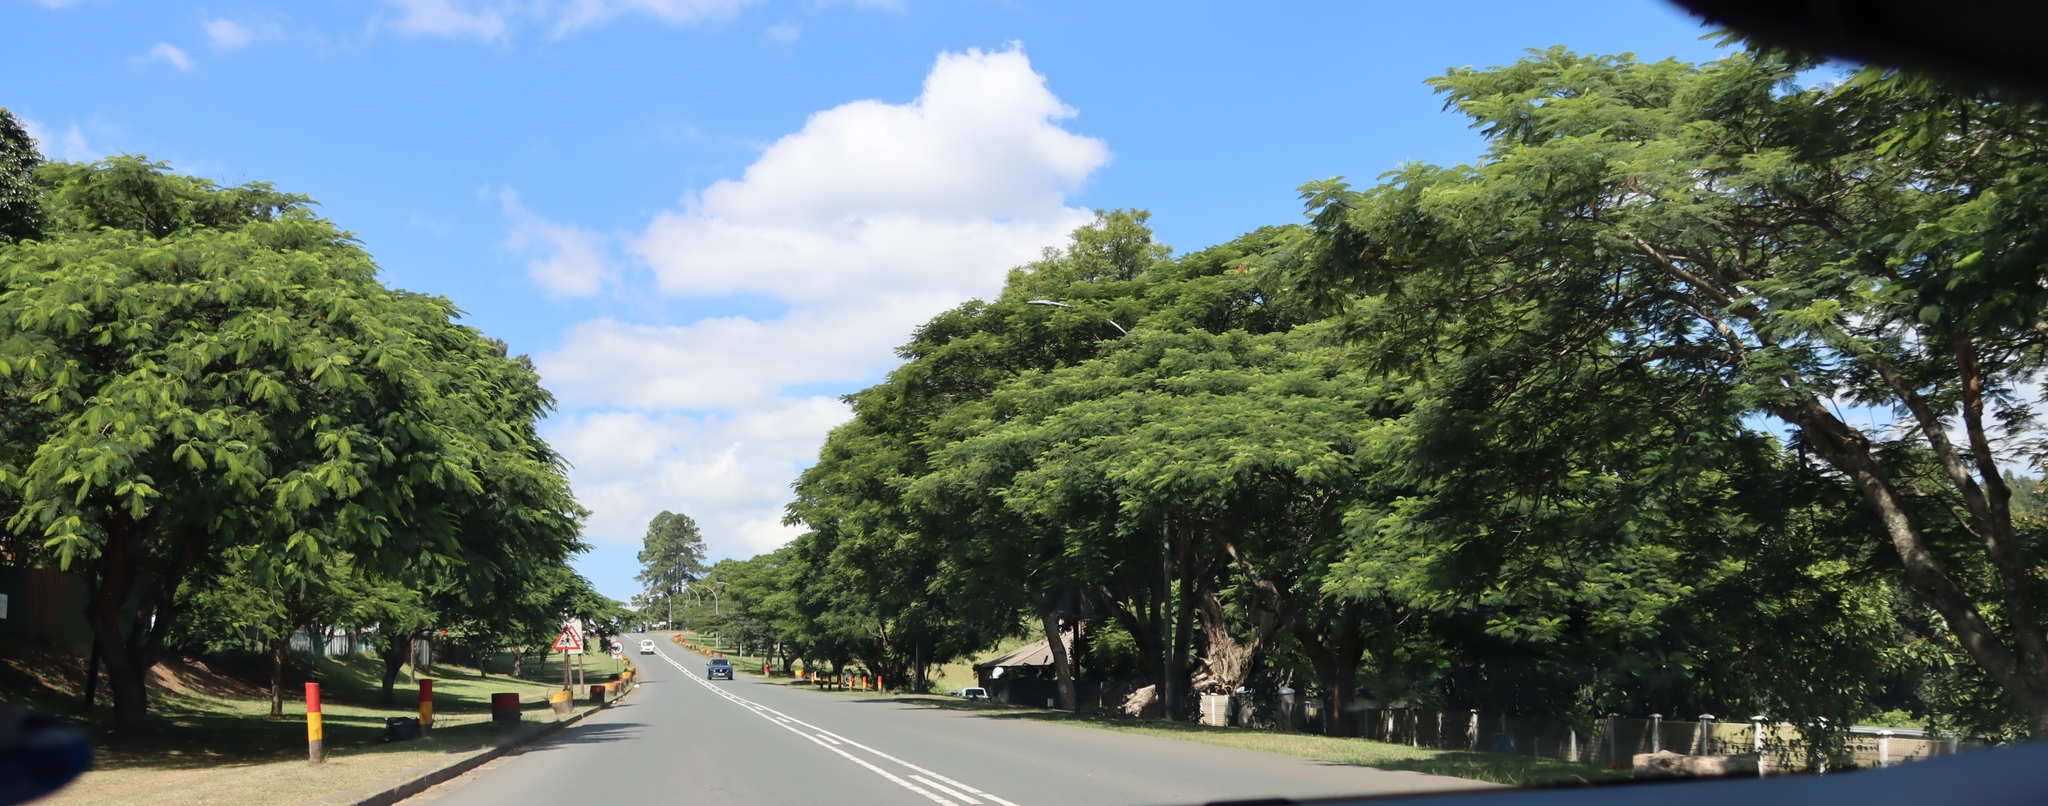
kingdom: Plantae
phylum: Tracheophyta
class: Magnoliopsida
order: Fabales
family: Fabaceae
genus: Delonix
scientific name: Delonix regia
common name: Royal poinciana
